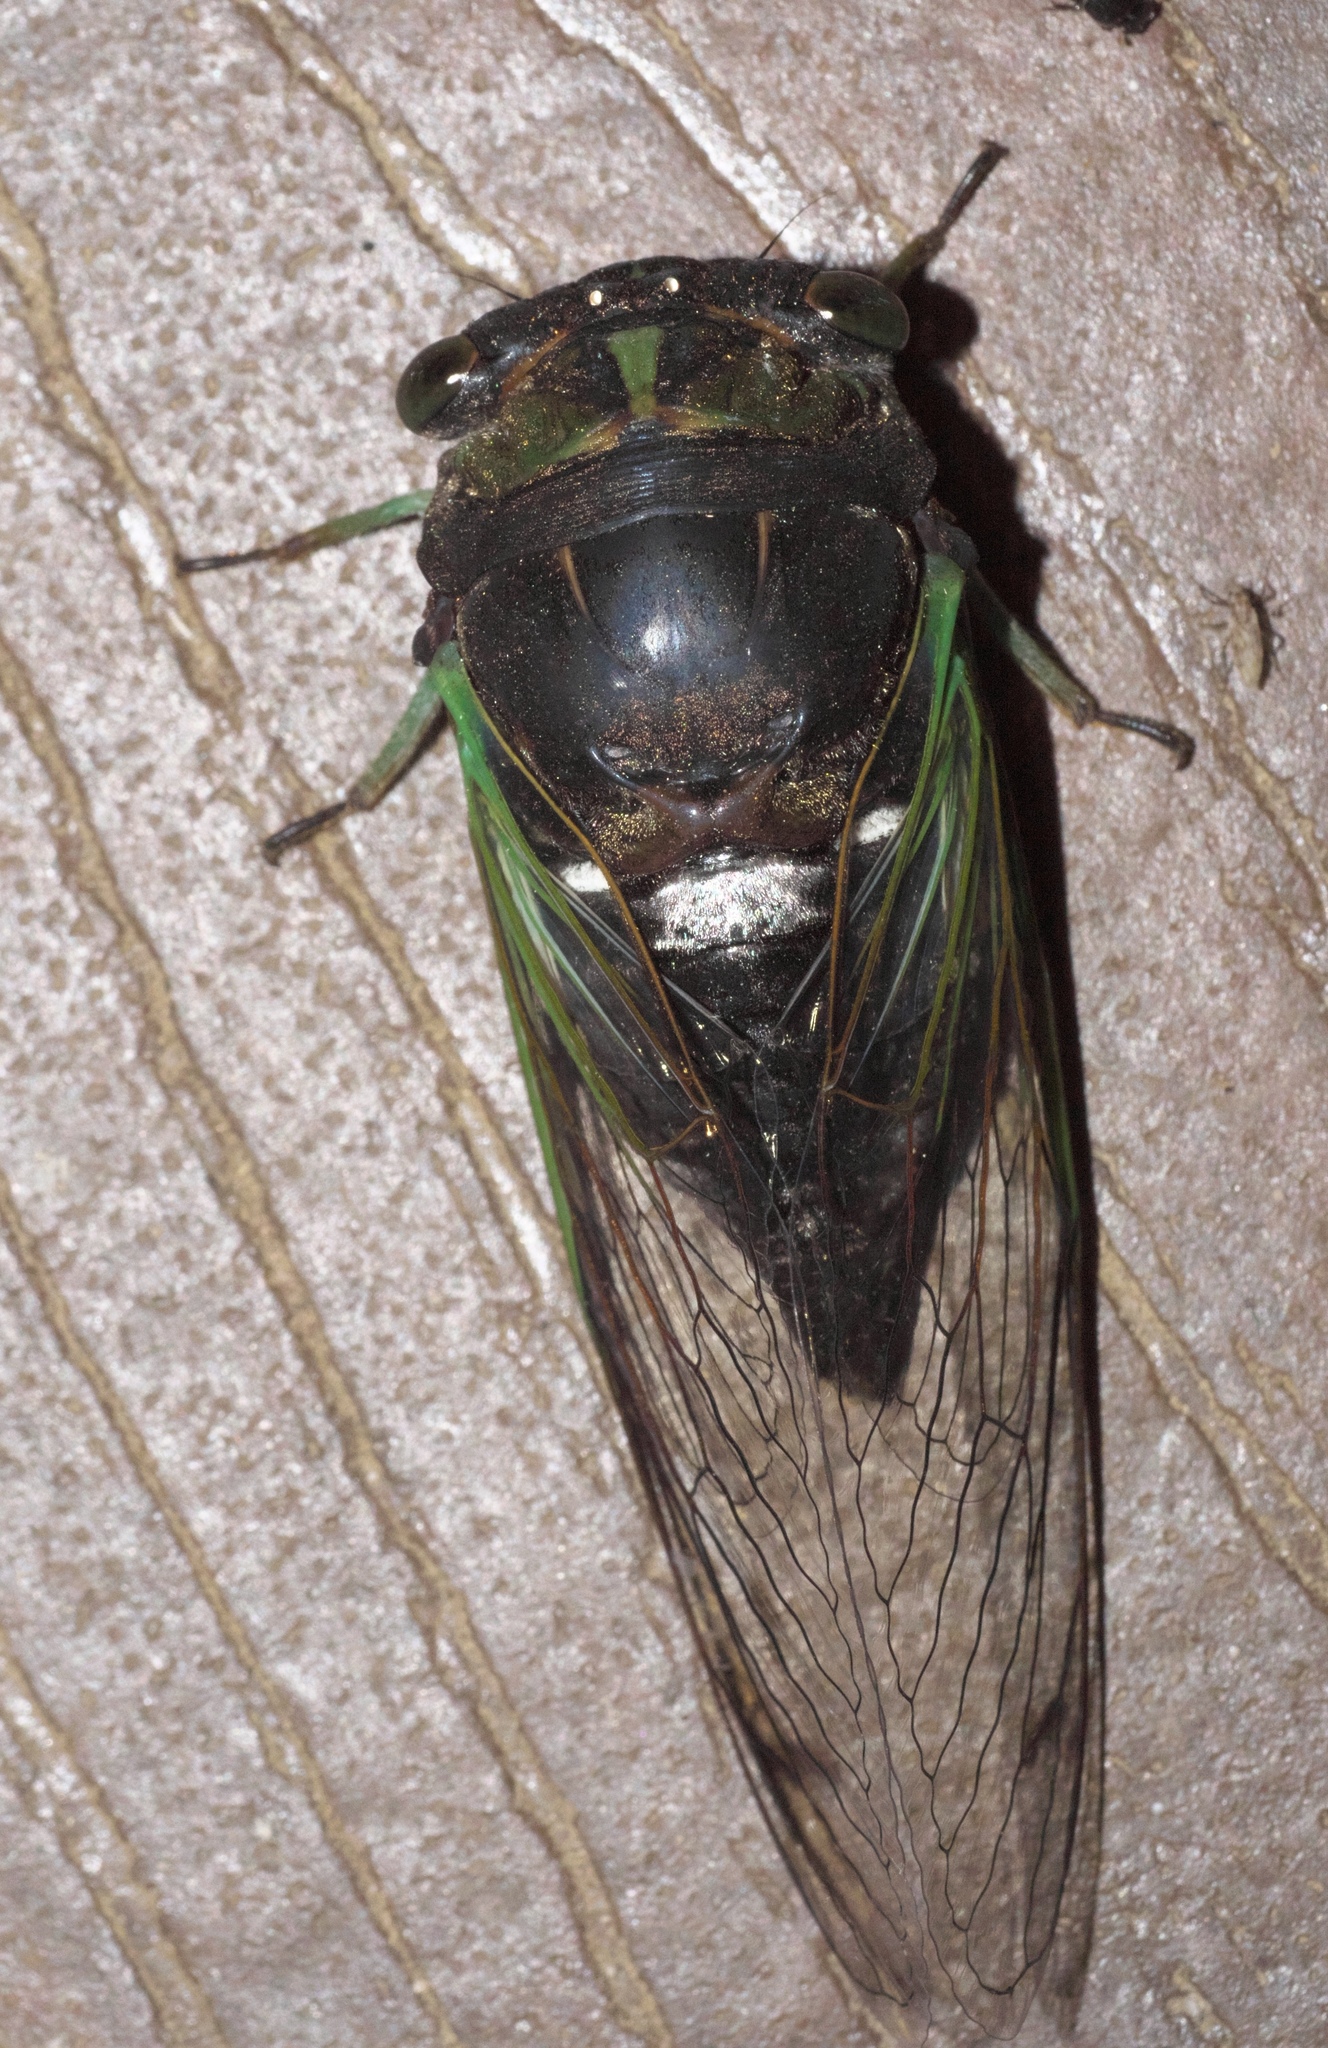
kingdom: Animalia
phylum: Arthropoda
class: Insecta
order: Hemiptera
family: Cicadidae
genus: Neotibicen
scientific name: Neotibicen tibicen
